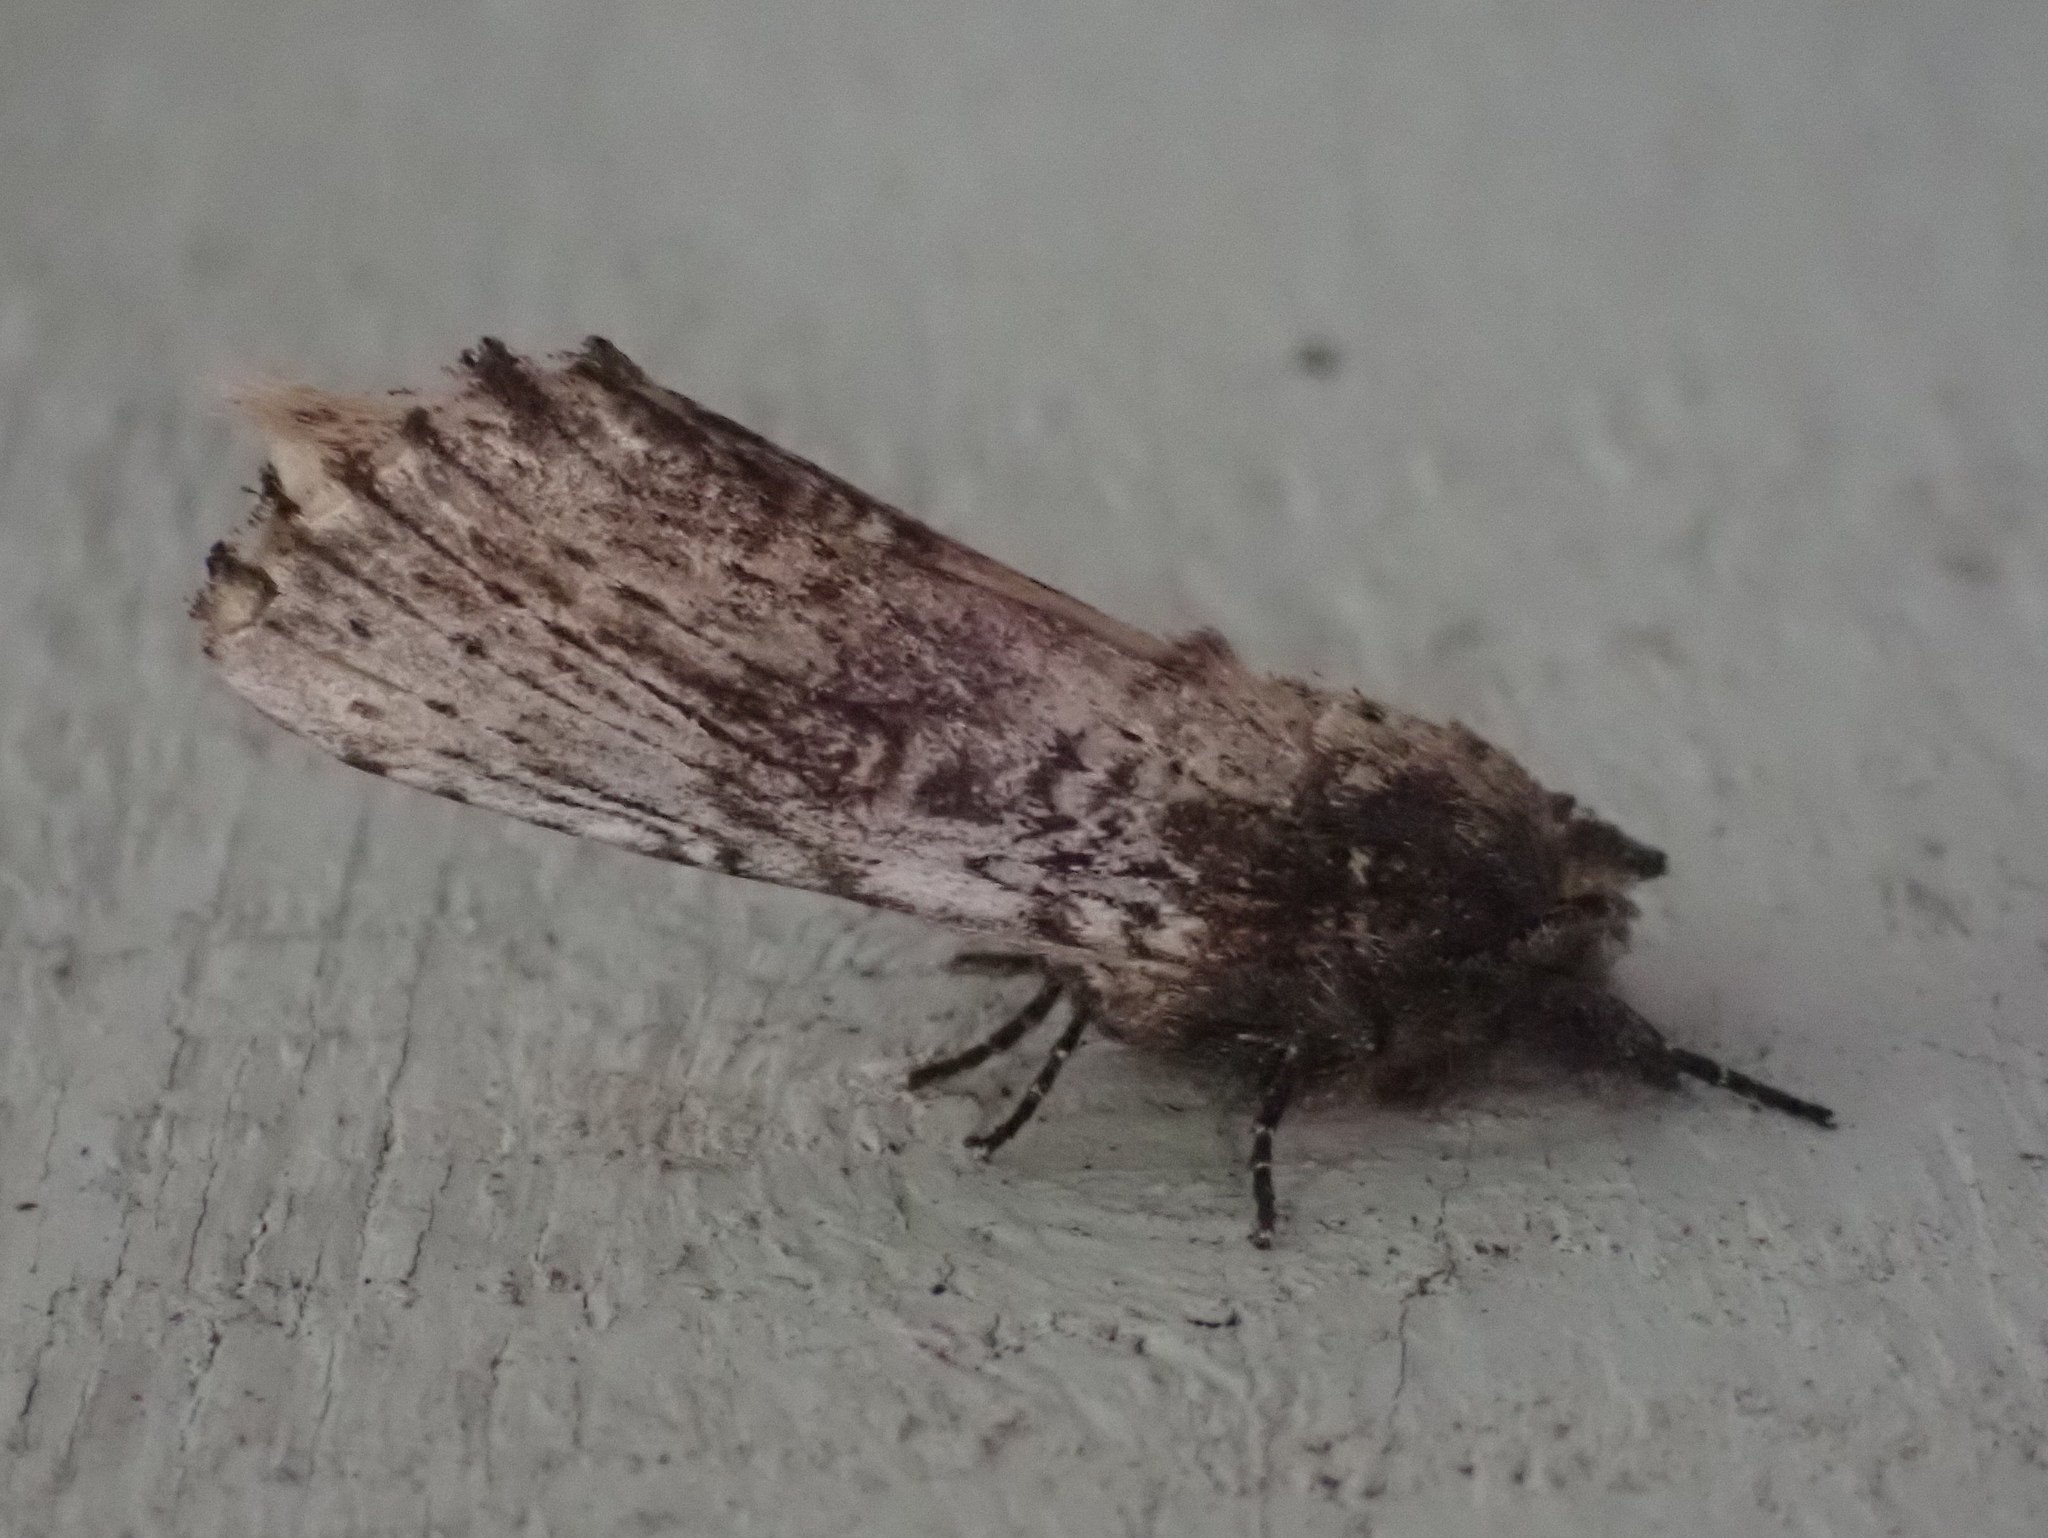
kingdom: Animalia
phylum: Arthropoda
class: Insecta
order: Lepidoptera
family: Notodontidae
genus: Schizura
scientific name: Schizura ipomaeae
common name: Morning-glory prominent
